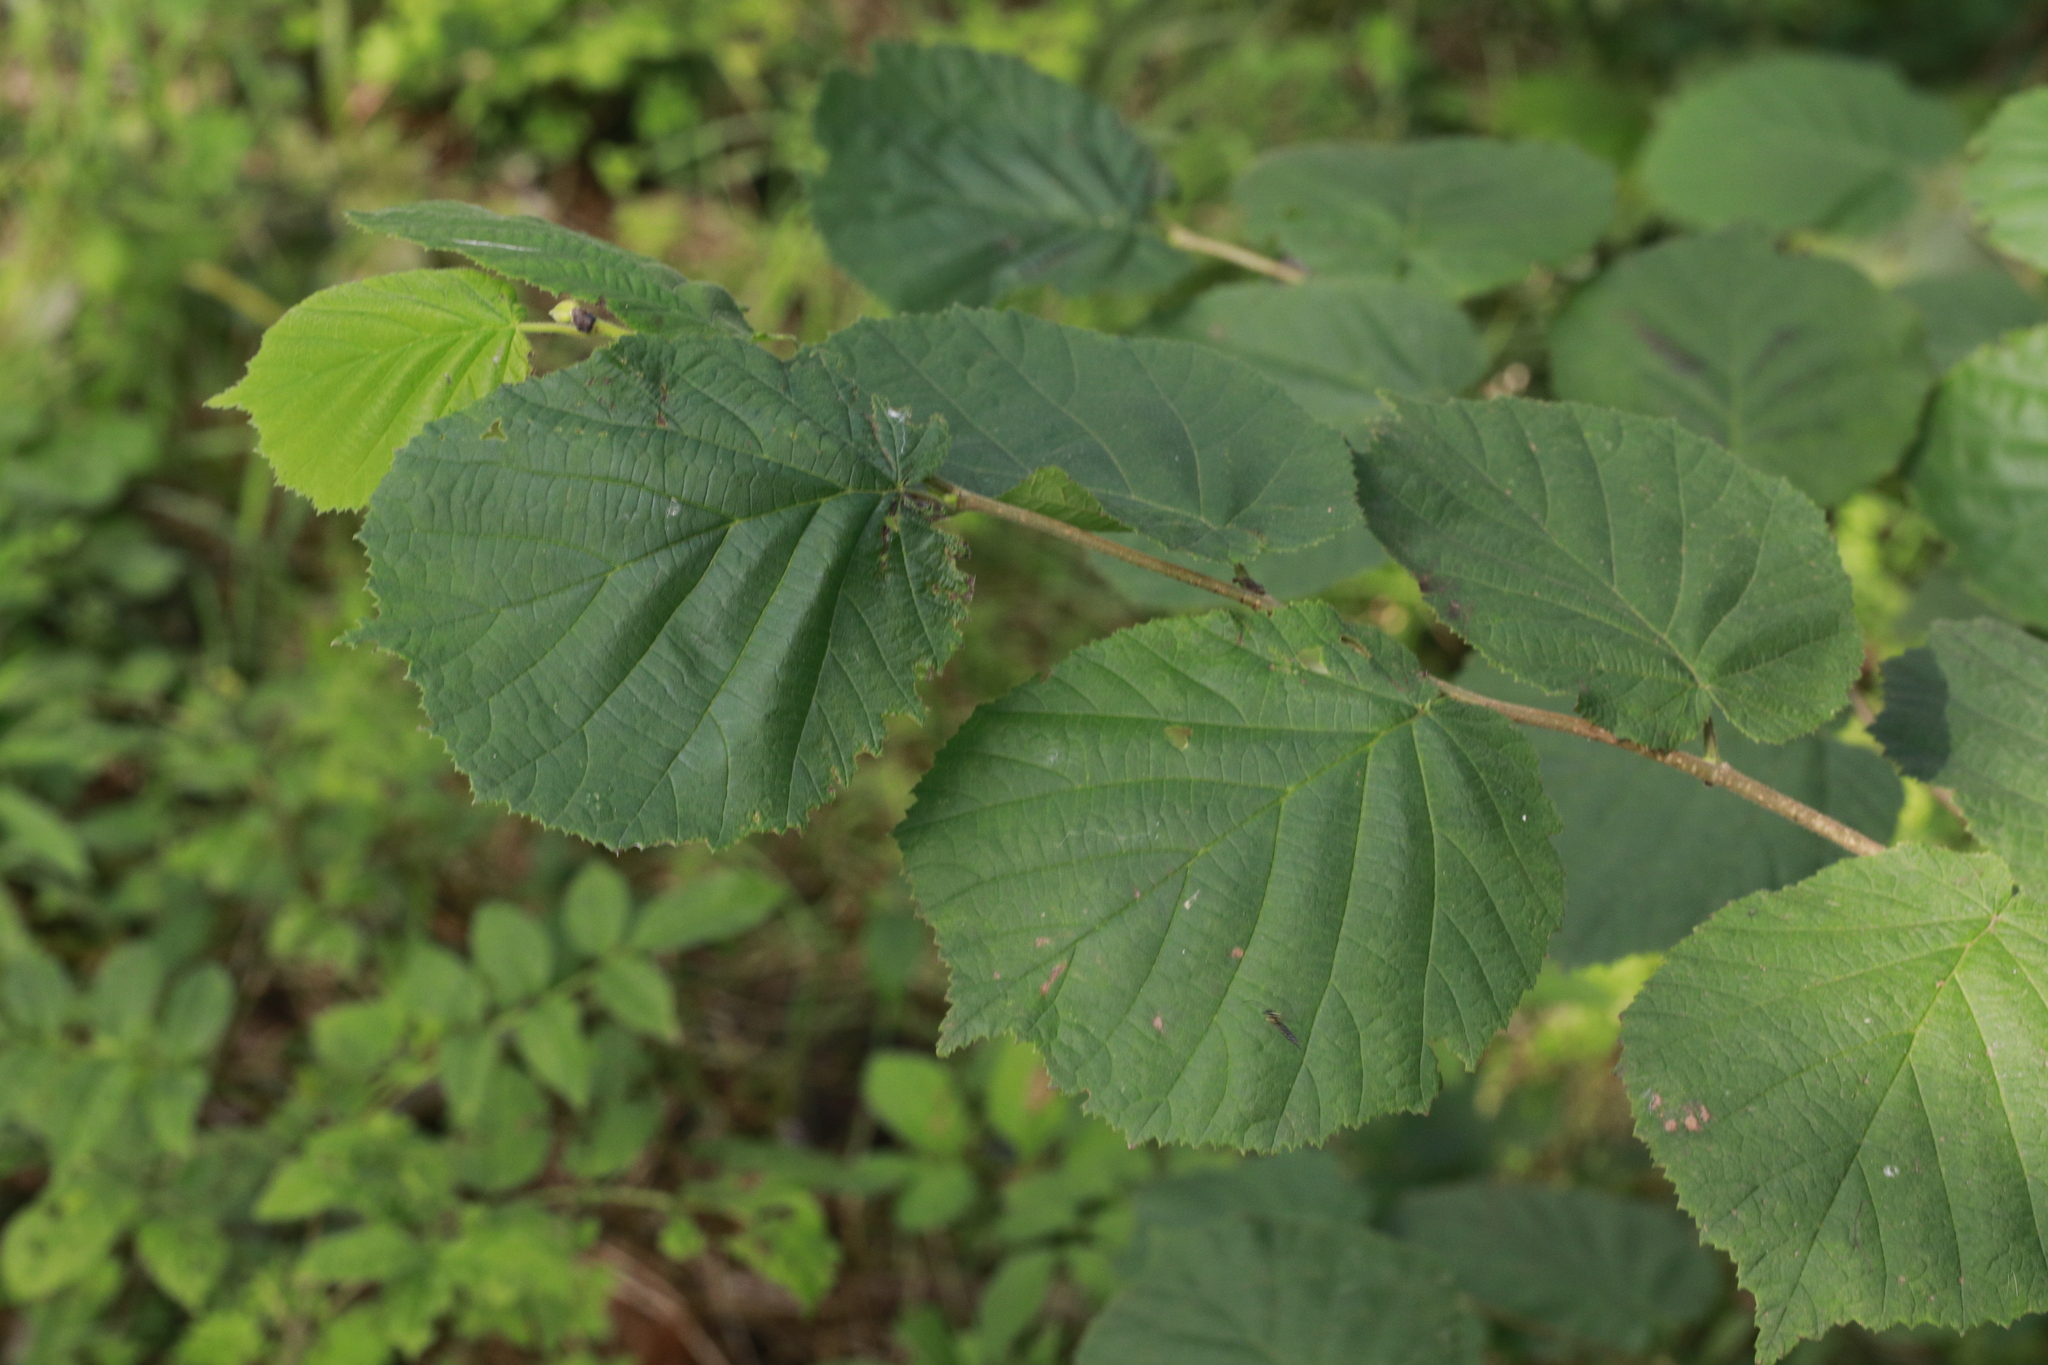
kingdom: Plantae
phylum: Tracheophyta
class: Magnoliopsida
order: Fagales
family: Betulaceae
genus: Corylus
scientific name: Corylus avellana
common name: European hazel
